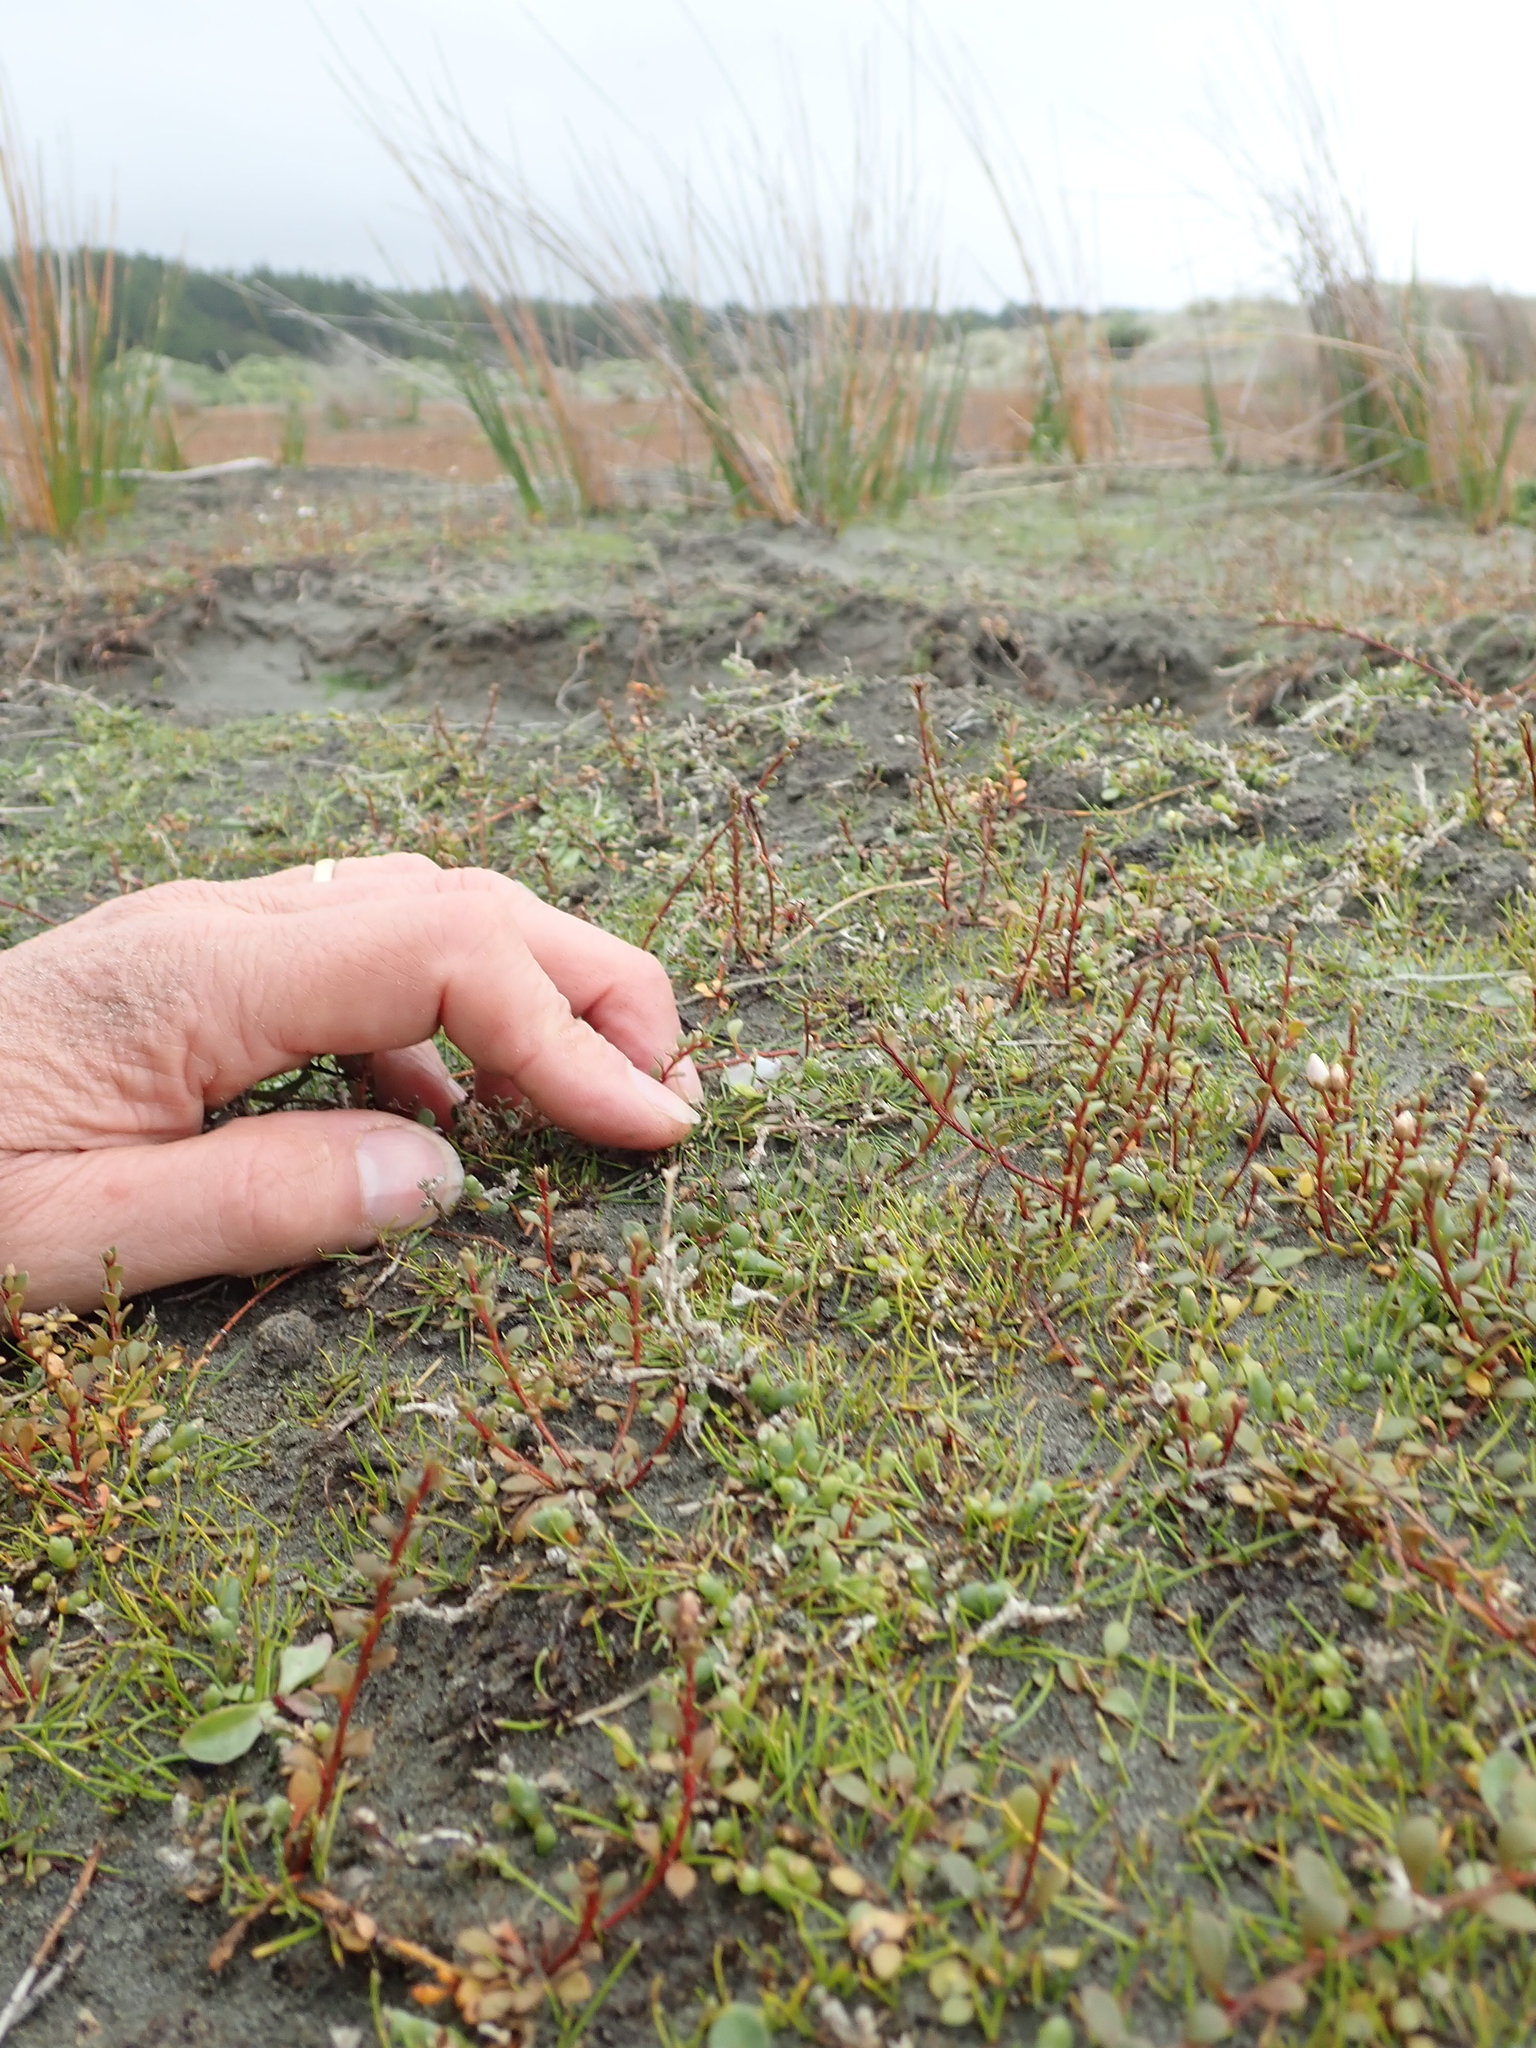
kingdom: Plantae
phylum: Tracheophyta
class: Magnoliopsida
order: Caryophyllales
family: Amaranthaceae
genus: Salicornia
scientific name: Salicornia quinqueflora
